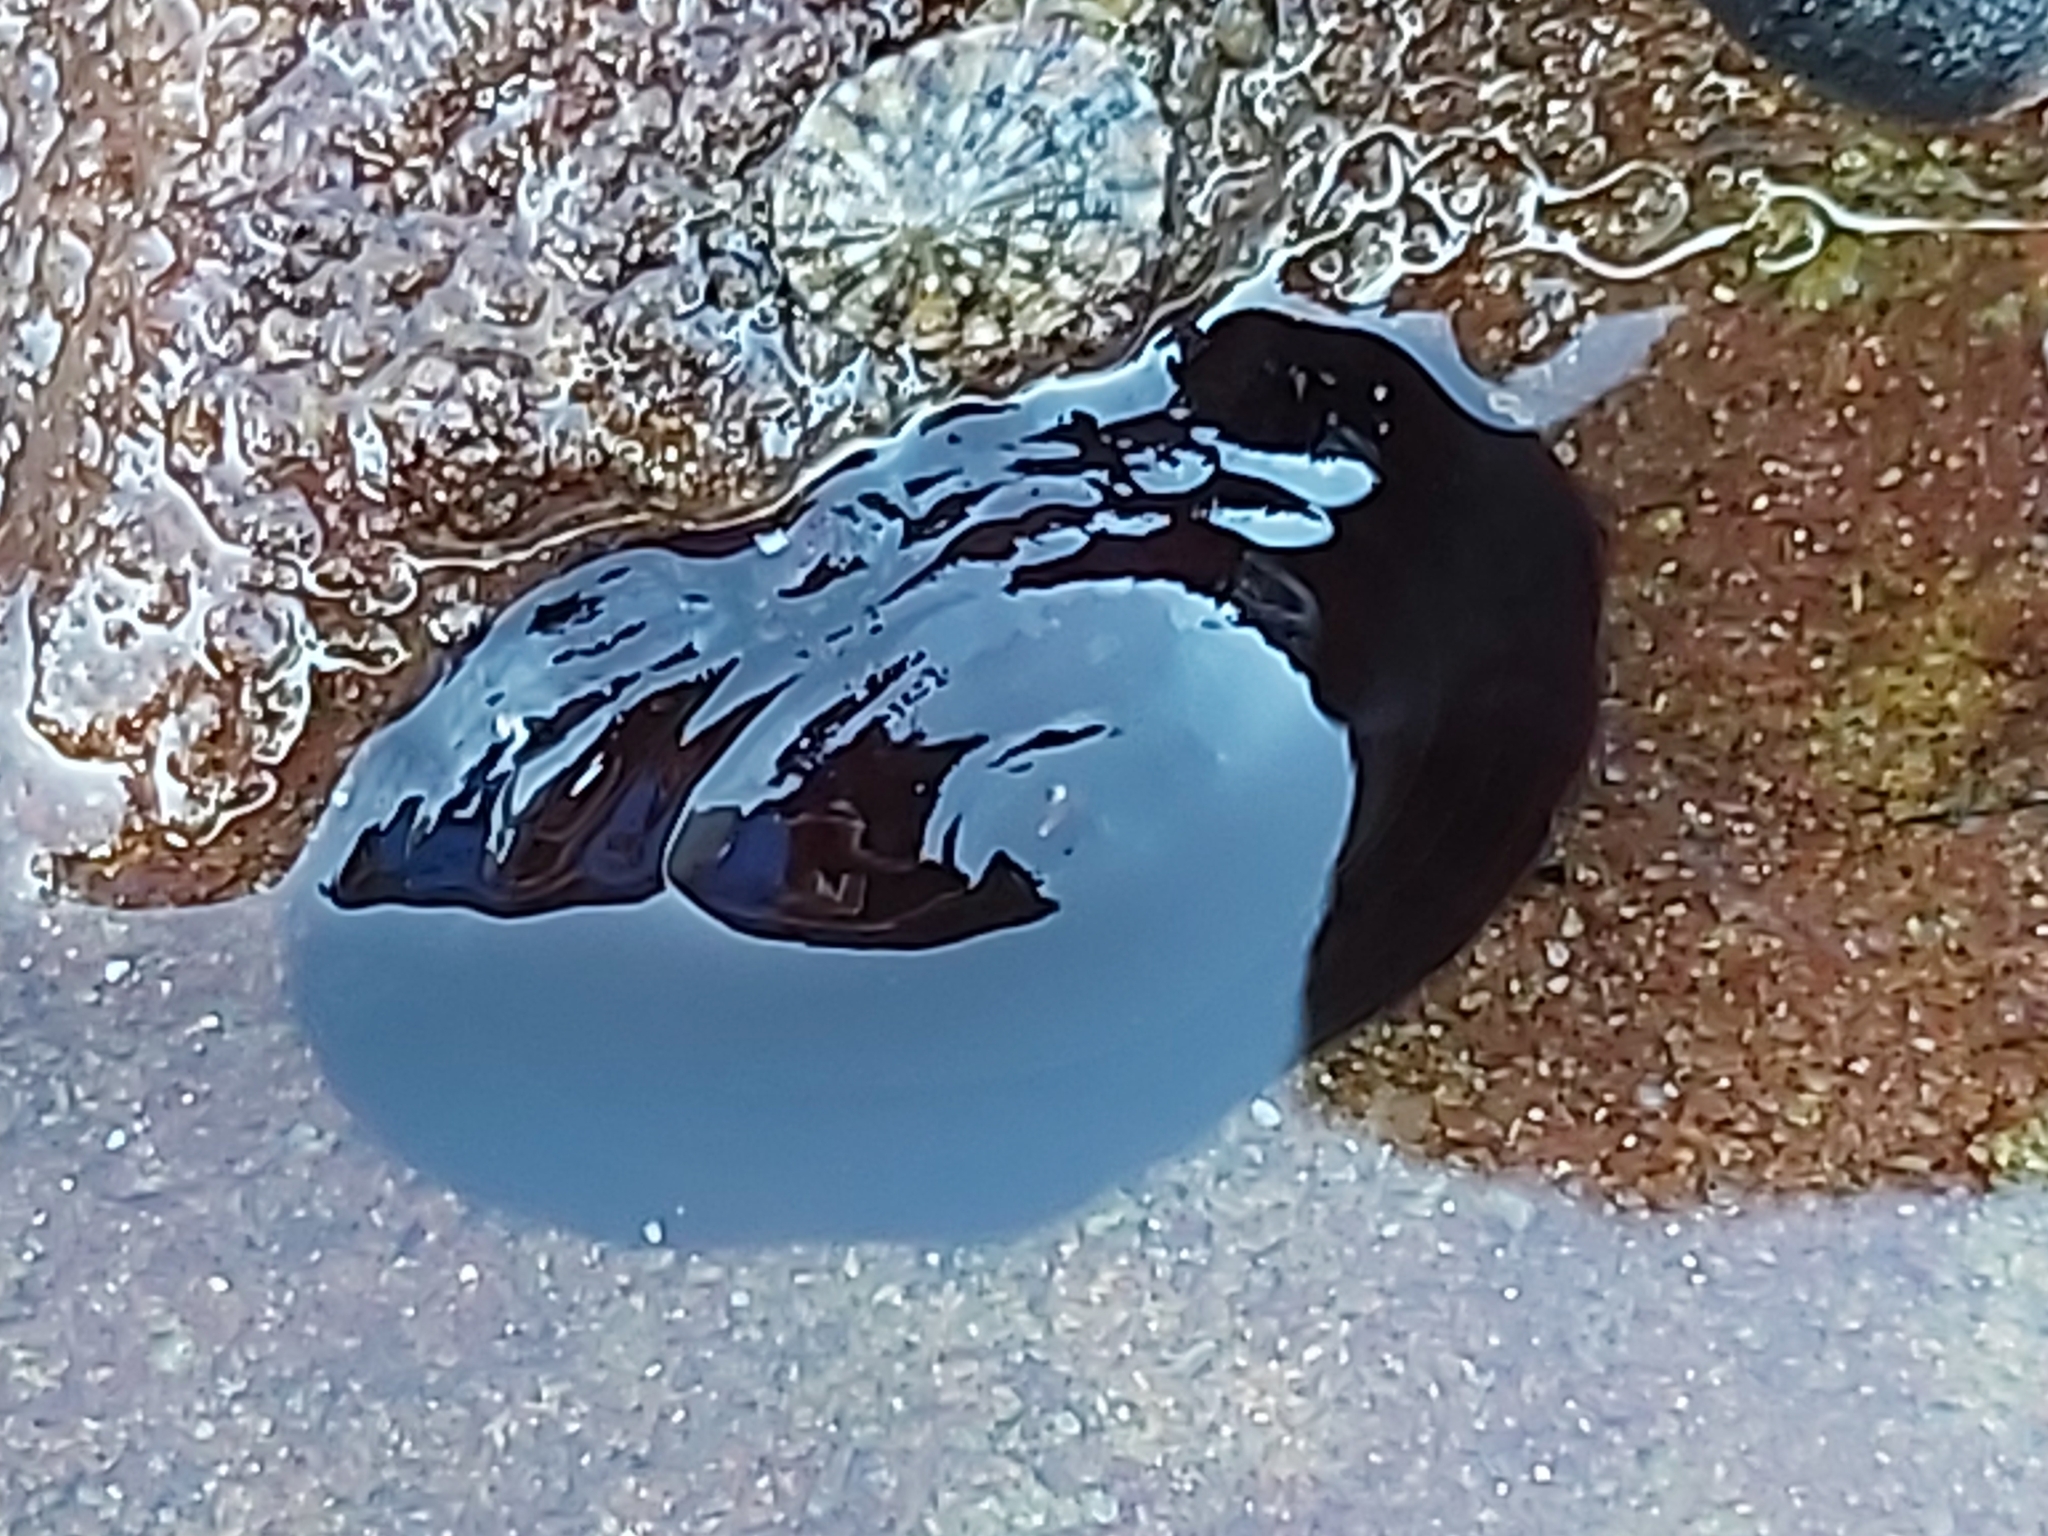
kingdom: Animalia
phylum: Mollusca
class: Gastropoda
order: Lepetellida
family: Fissurellidae
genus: Scutus
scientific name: Scutus antipodes
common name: Duckbill shell
